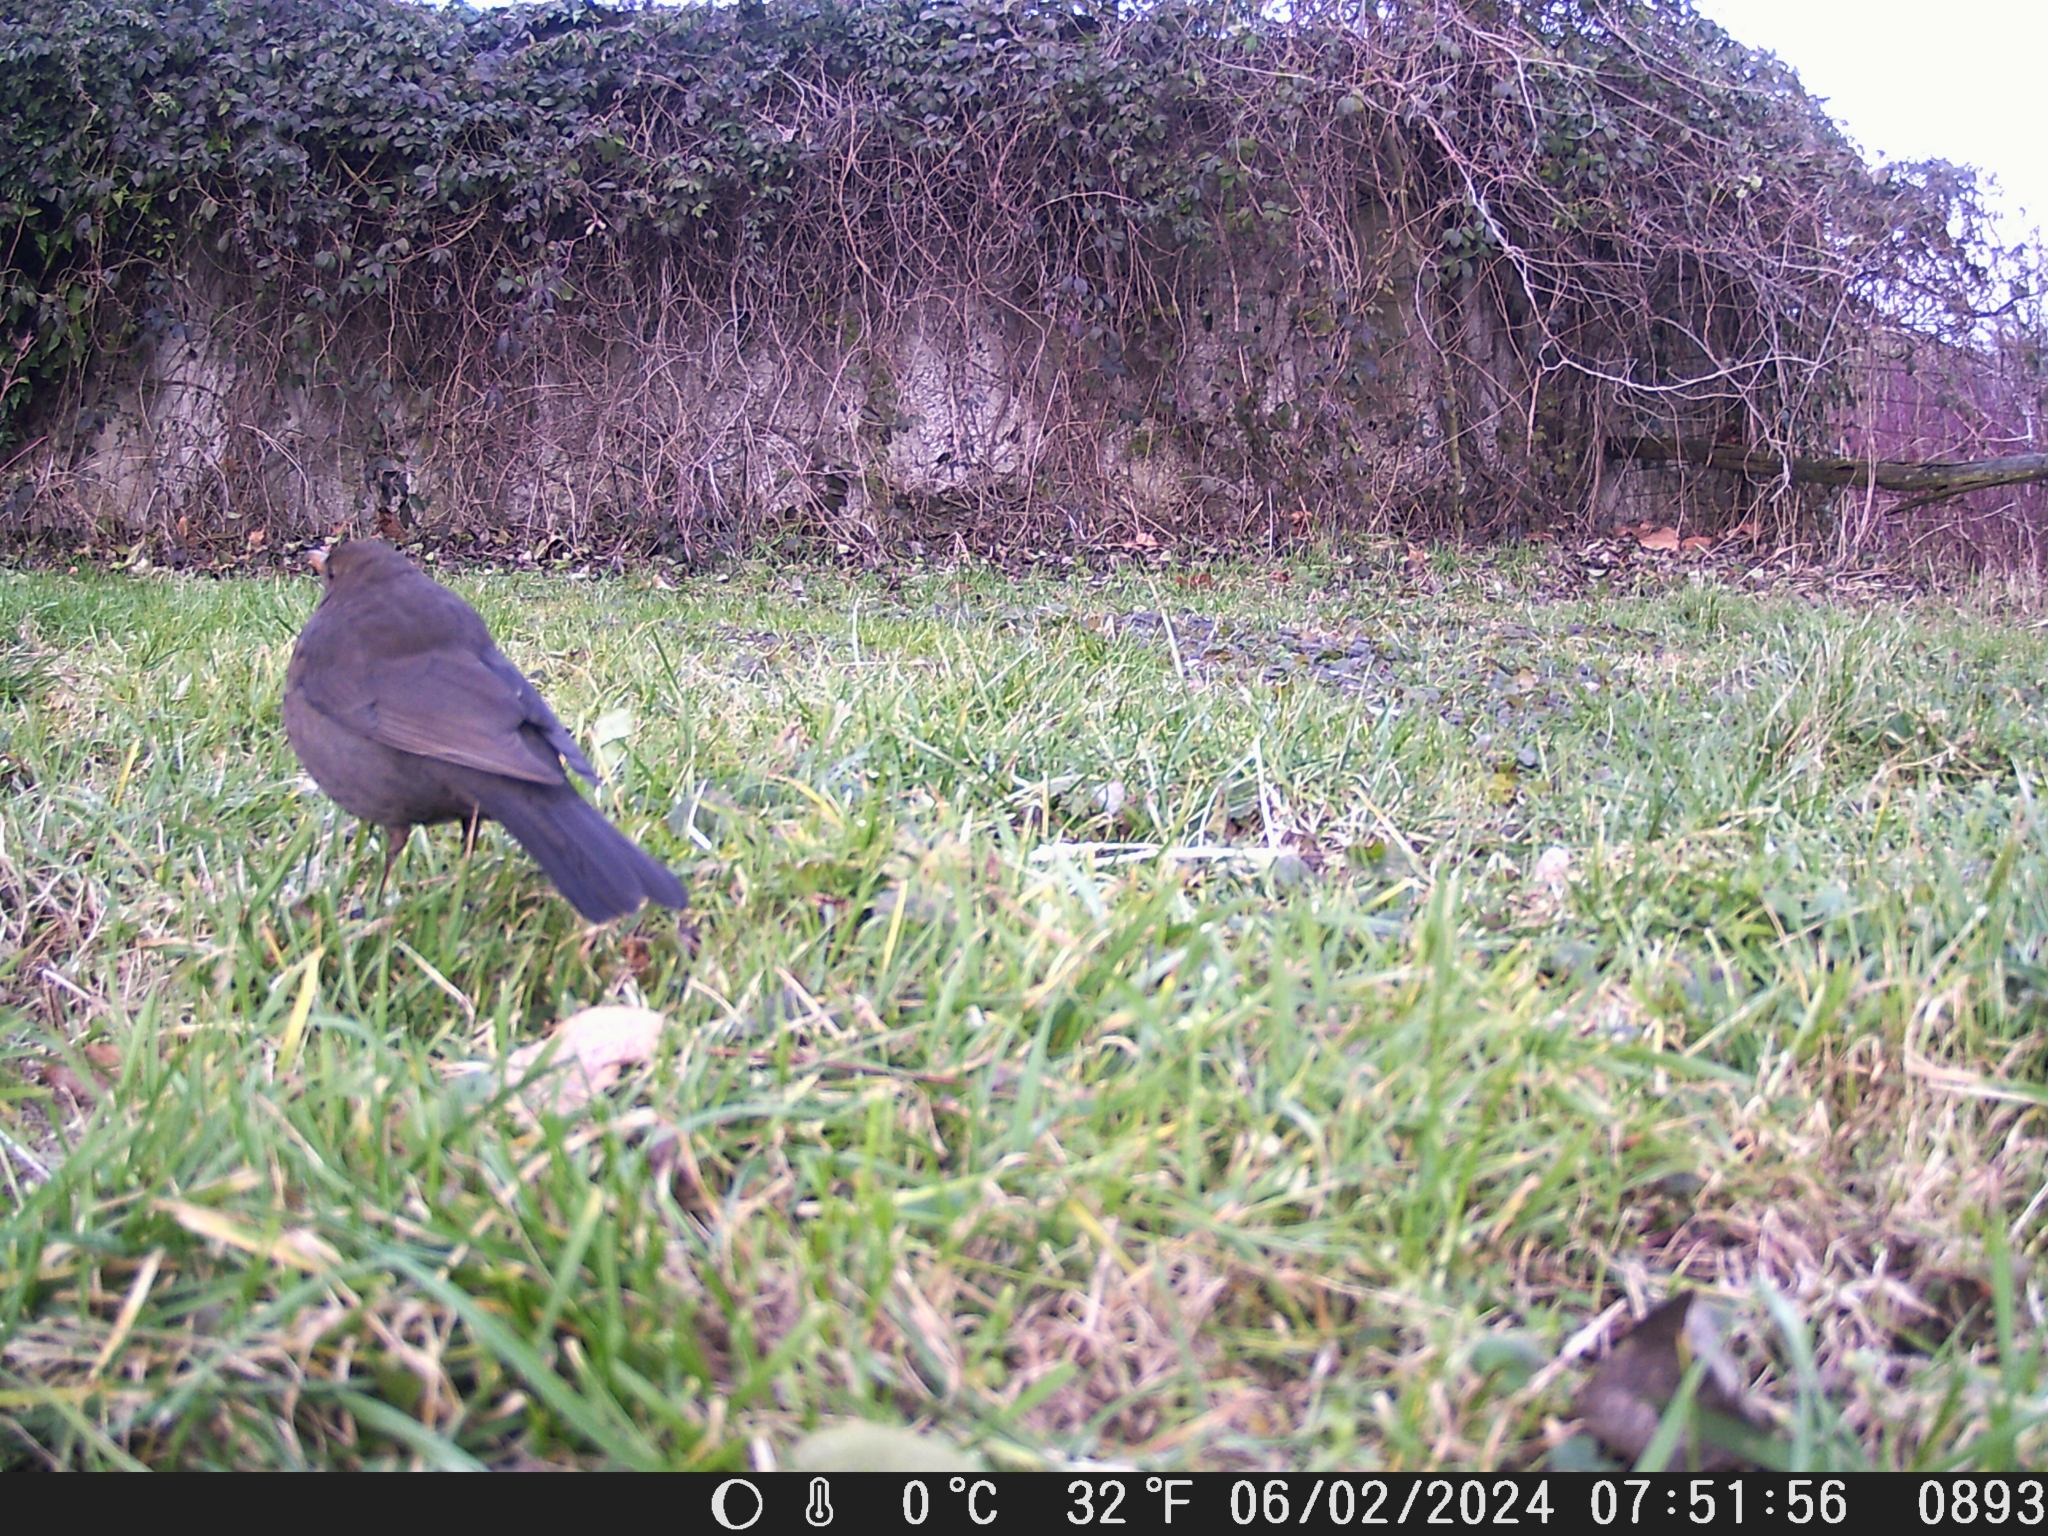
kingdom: Animalia
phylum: Chordata
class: Aves
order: Passeriformes
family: Turdidae
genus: Turdus
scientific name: Turdus merula
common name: Common blackbird
